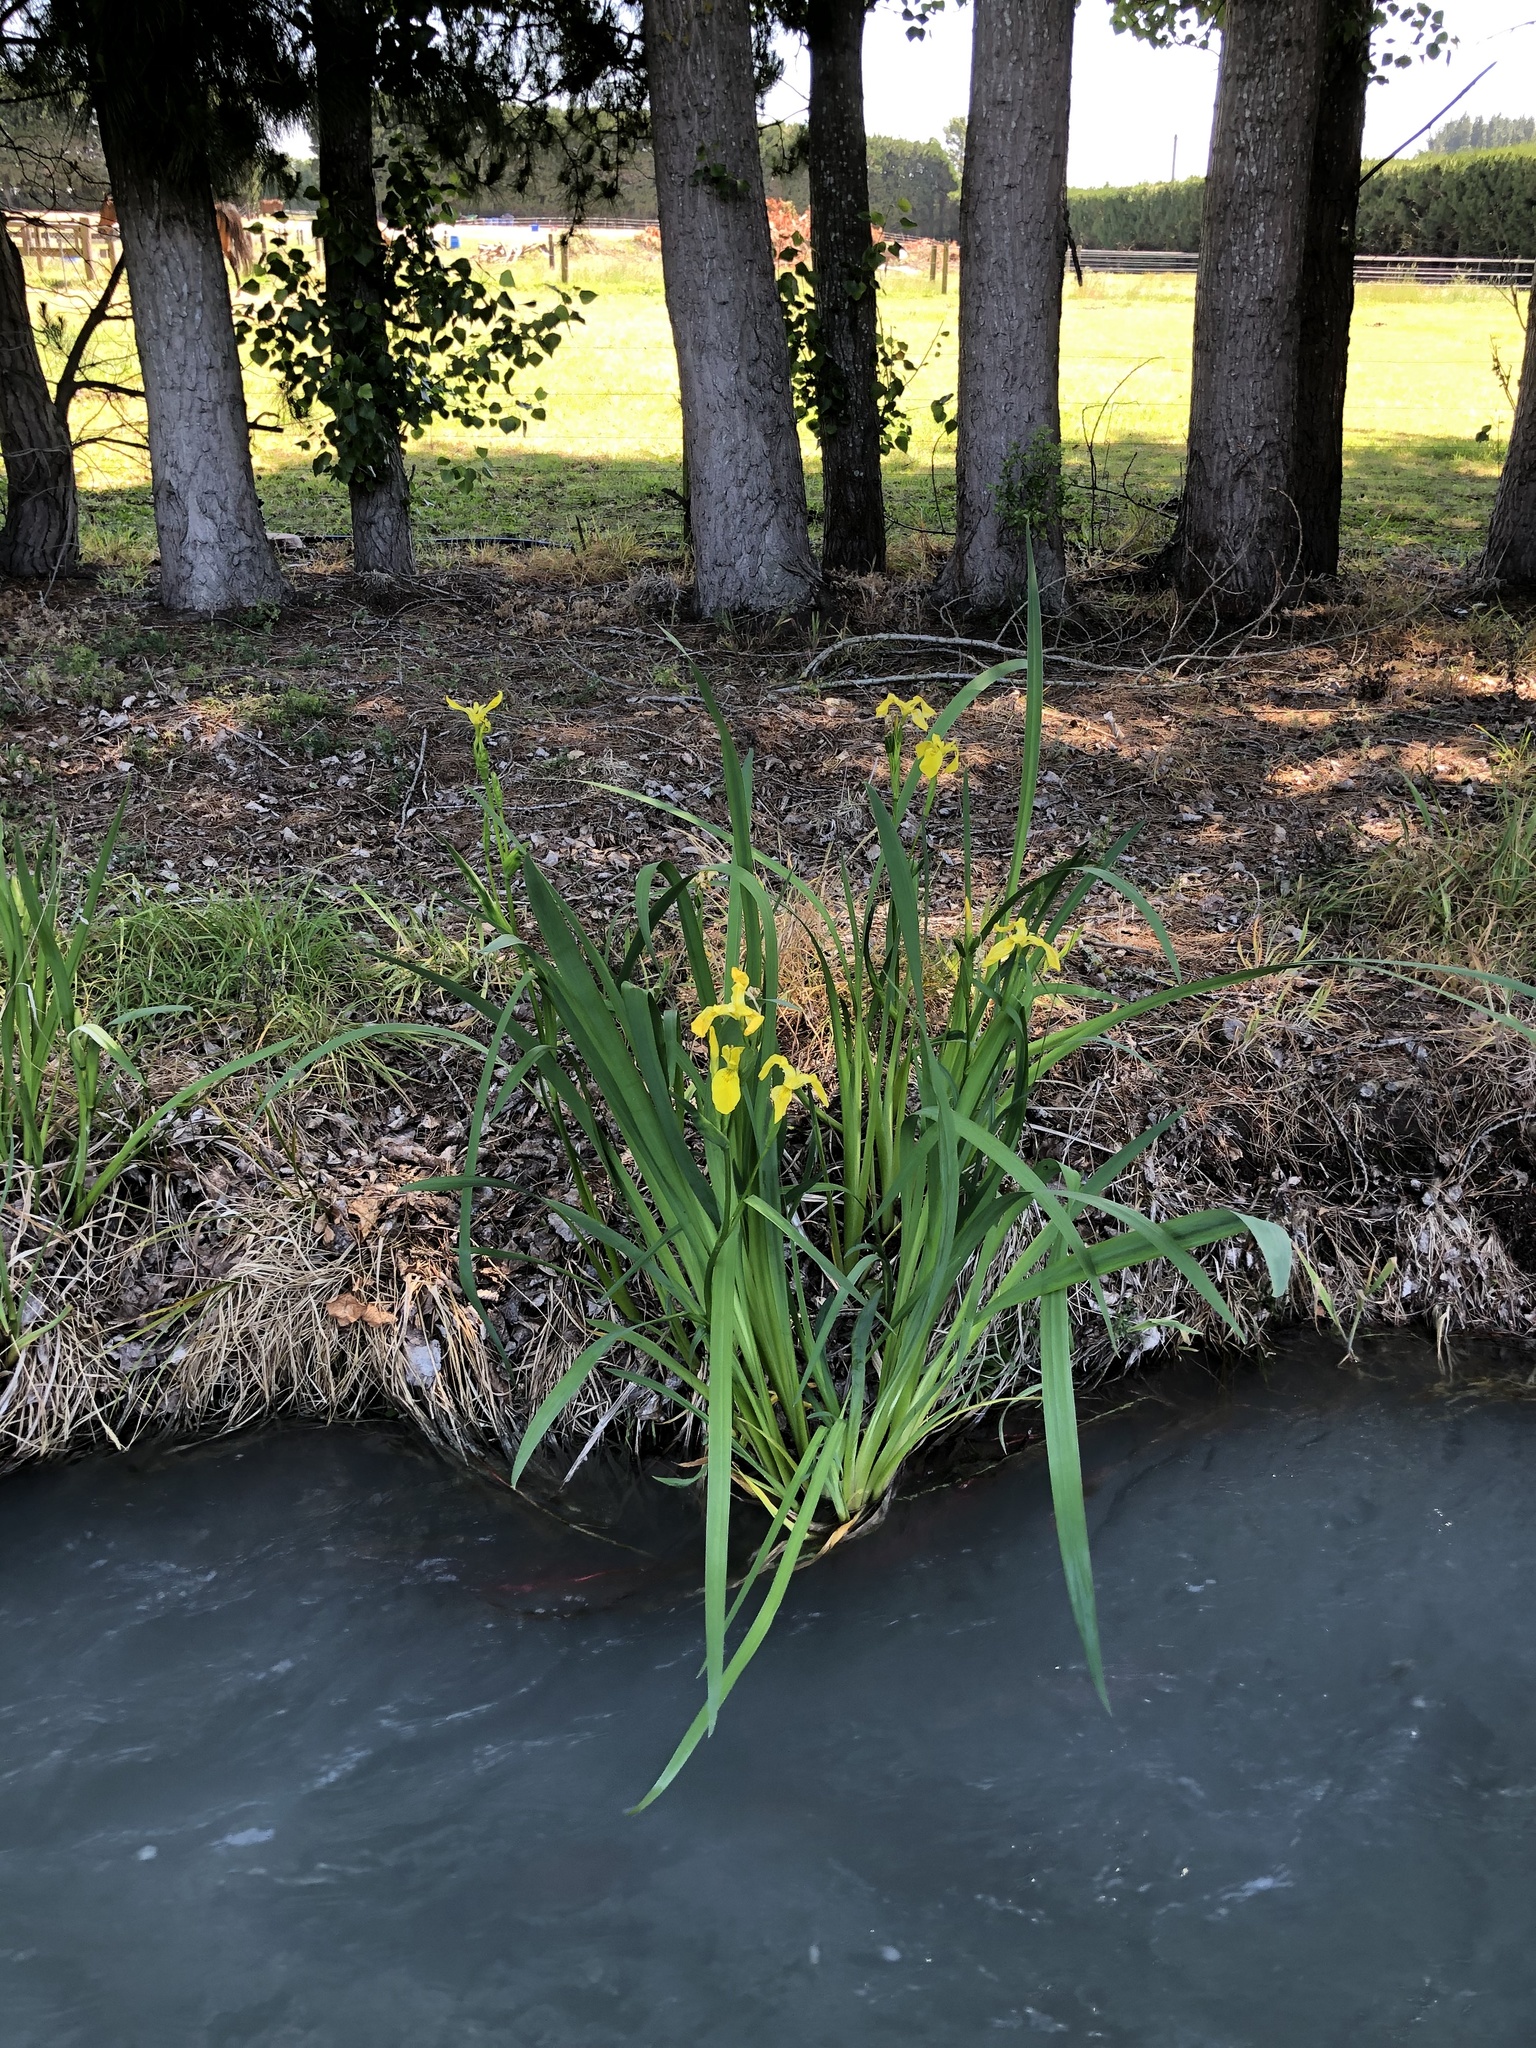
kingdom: Plantae
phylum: Tracheophyta
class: Liliopsida
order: Asparagales
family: Iridaceae
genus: Iris
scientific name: Iris pseudacorus
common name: Yellow flag
